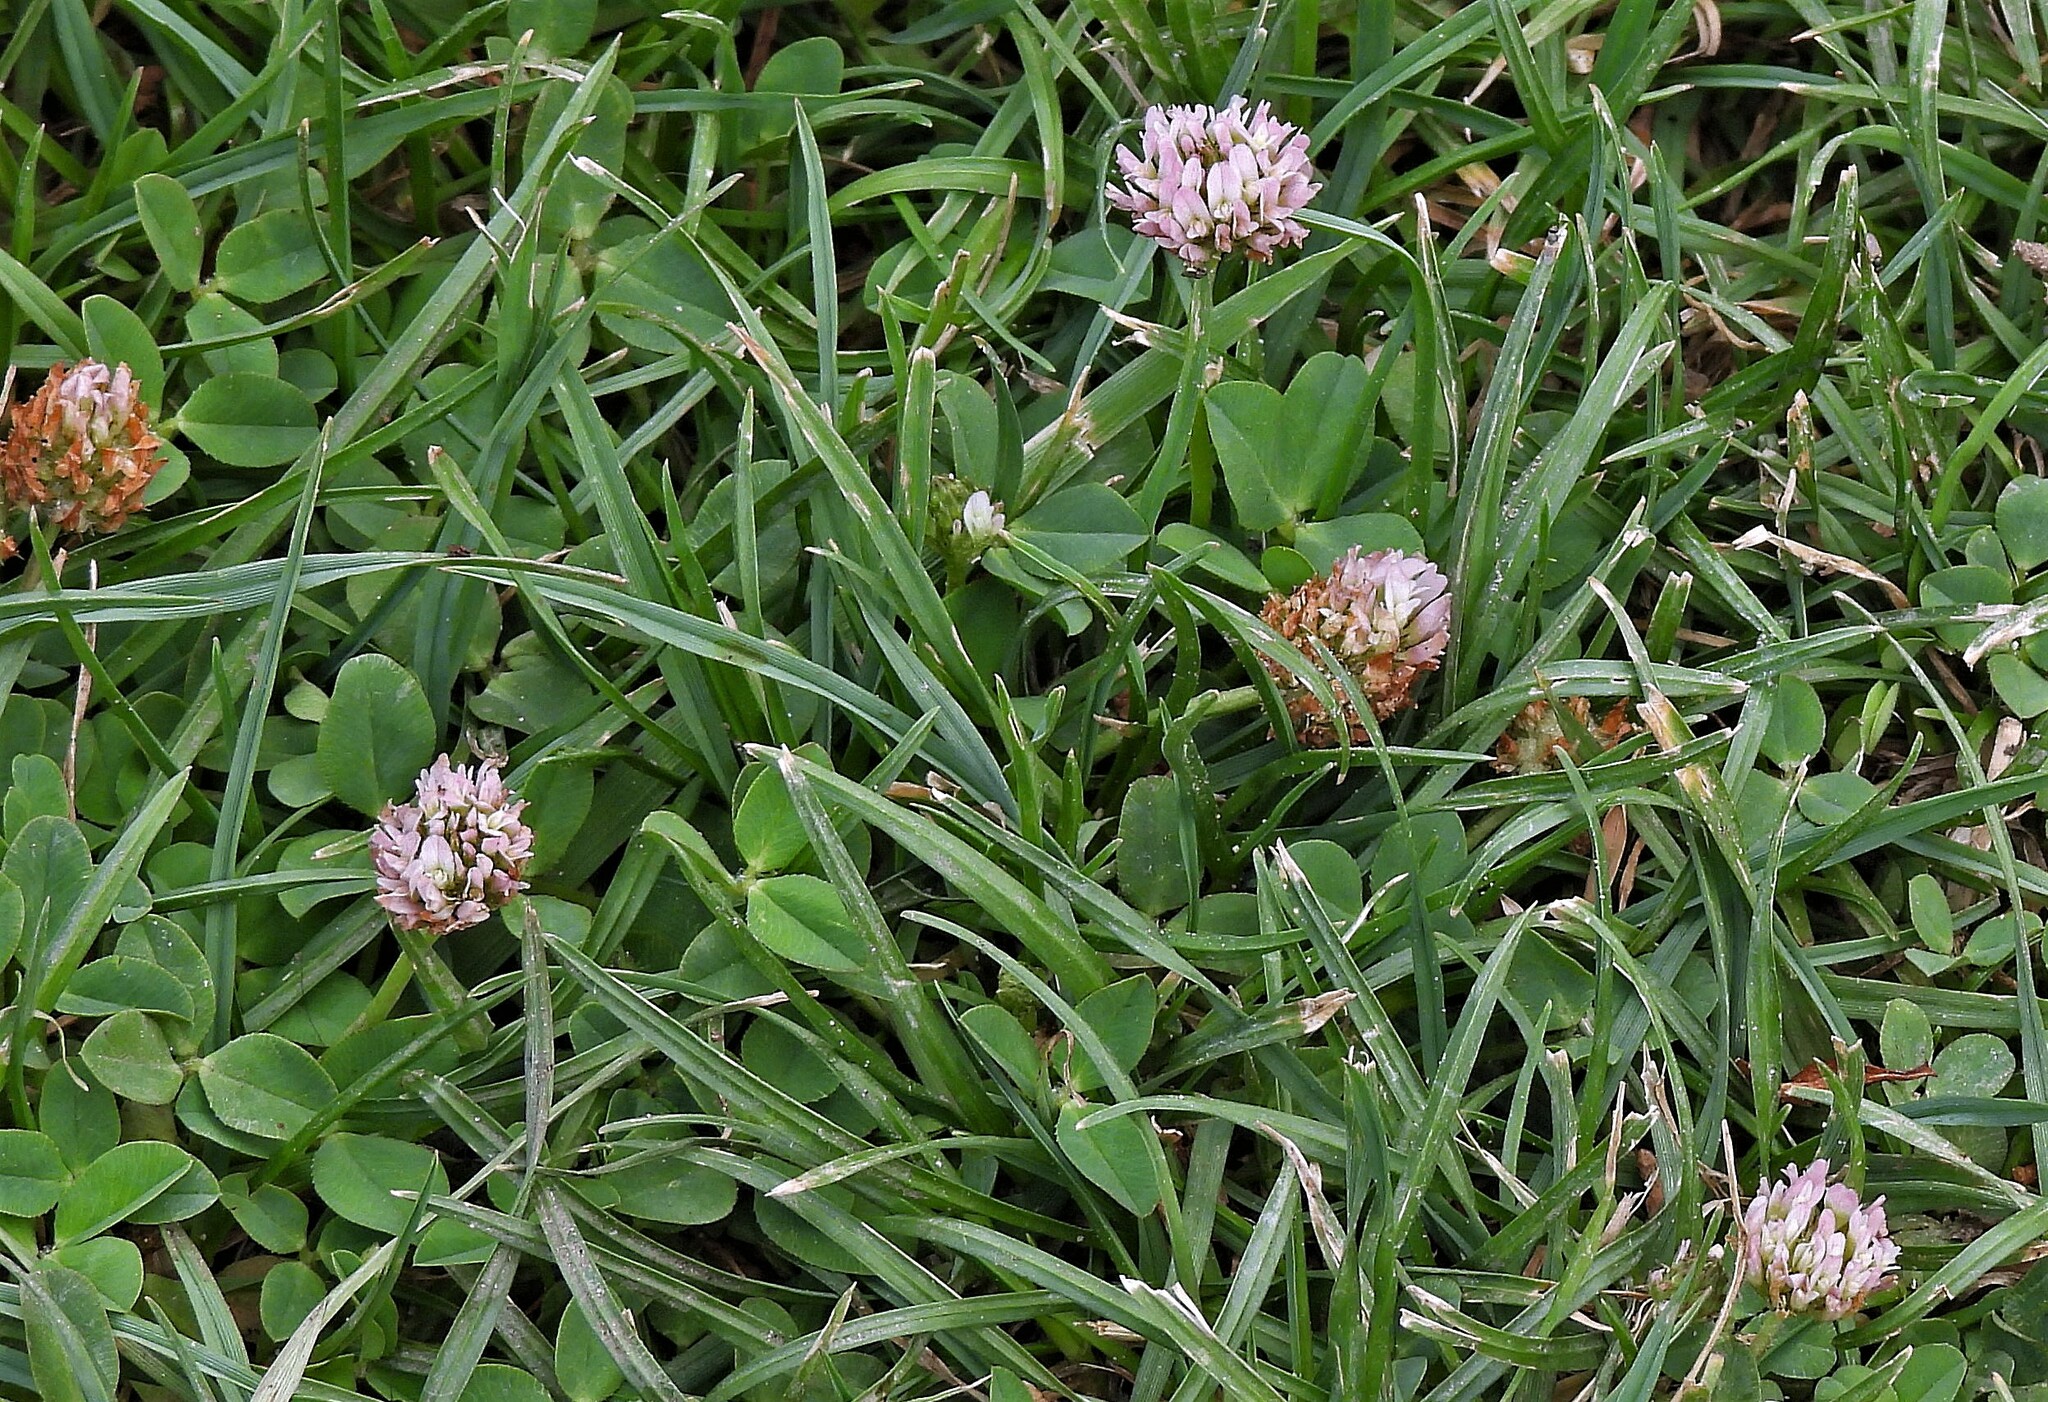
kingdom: Plantae
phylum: Tracheophyta
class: Magnoliopsida
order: Fabales
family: Fabaceae
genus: Trifolium
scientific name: Trifolium fragiferum
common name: Strawberry clover
